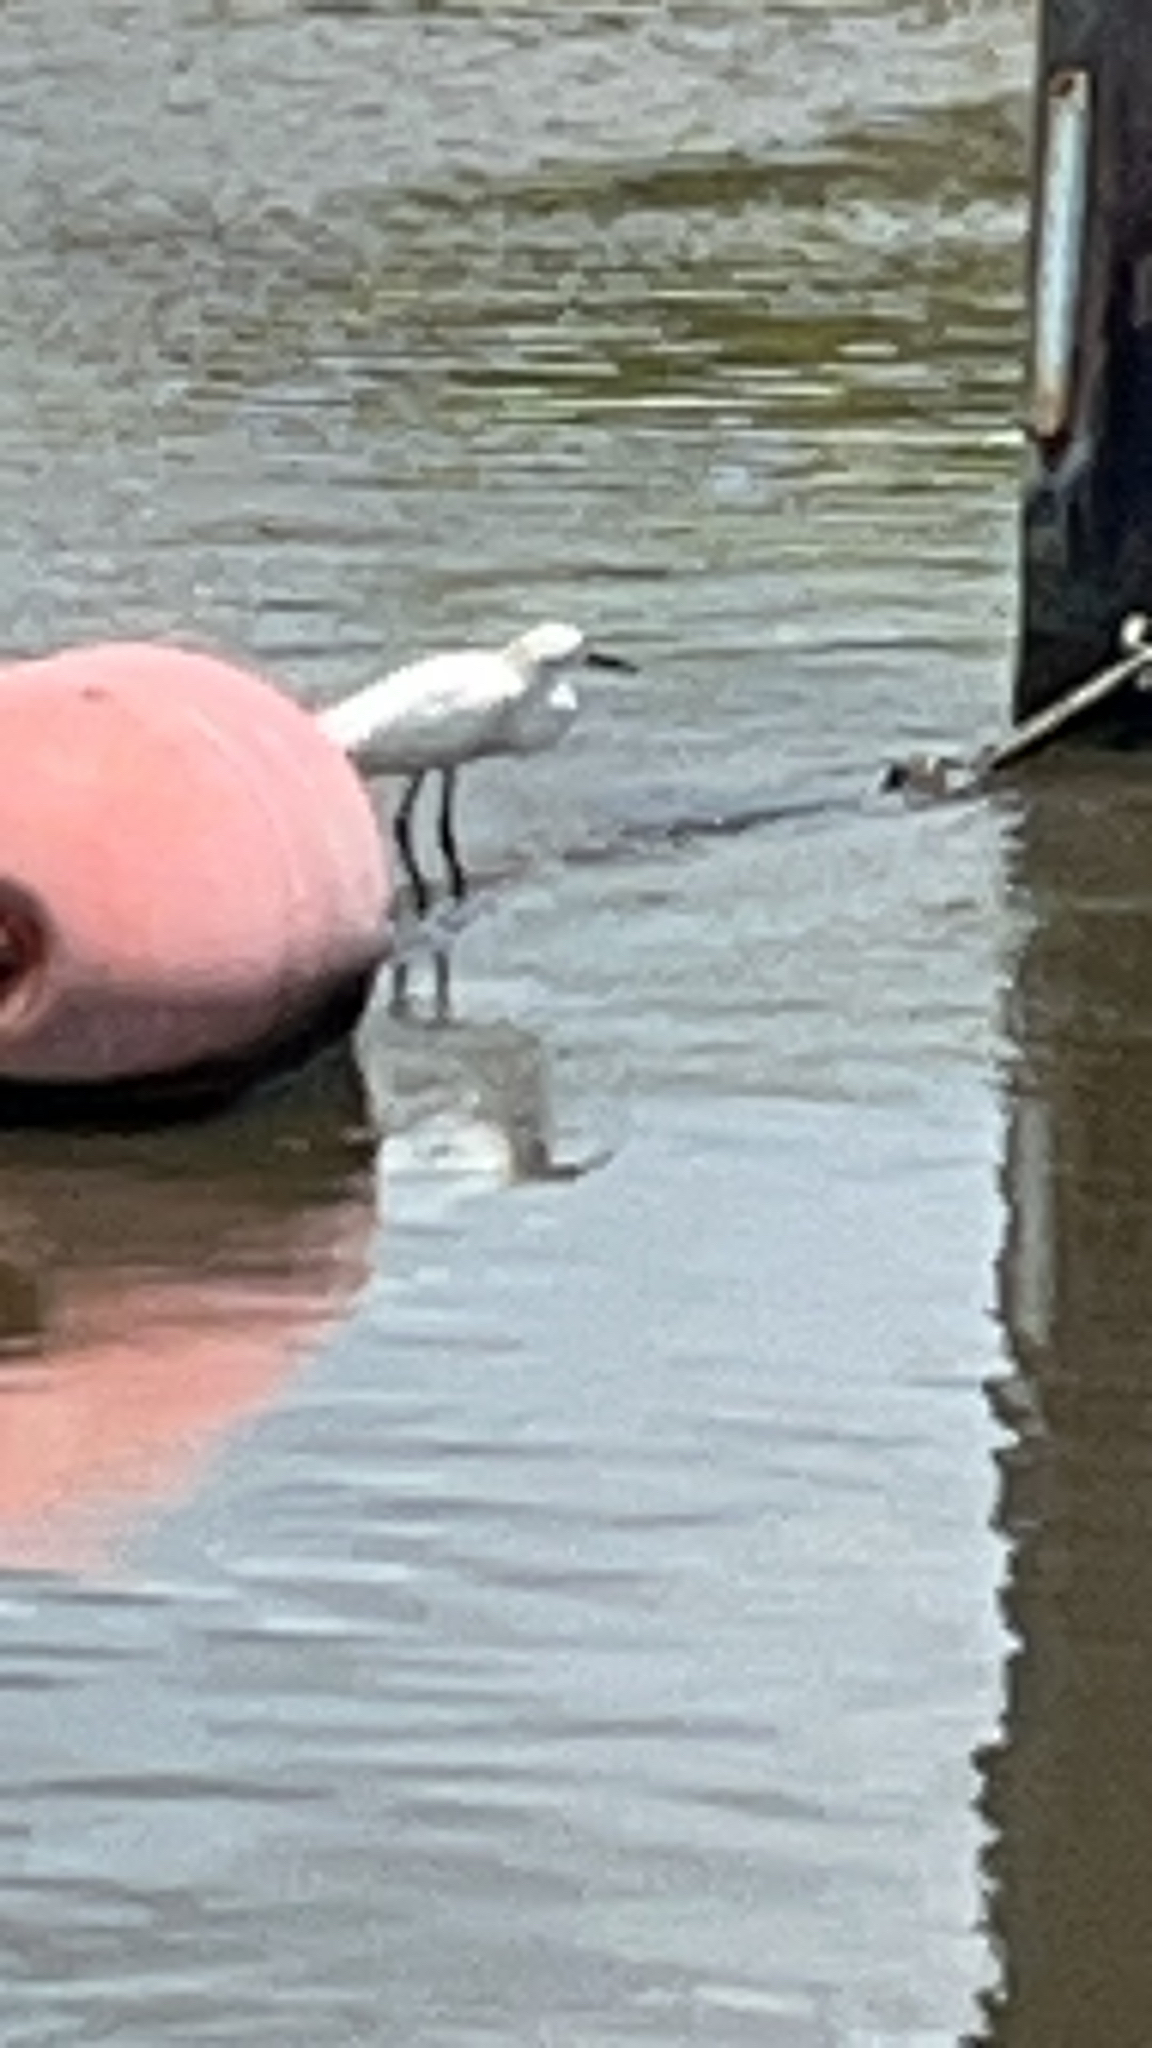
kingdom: Animalia
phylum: Chordata
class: Aves
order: Pelecaniformes
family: Ardeidae
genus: Egretta
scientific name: Egretta thula
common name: Snowy egret
